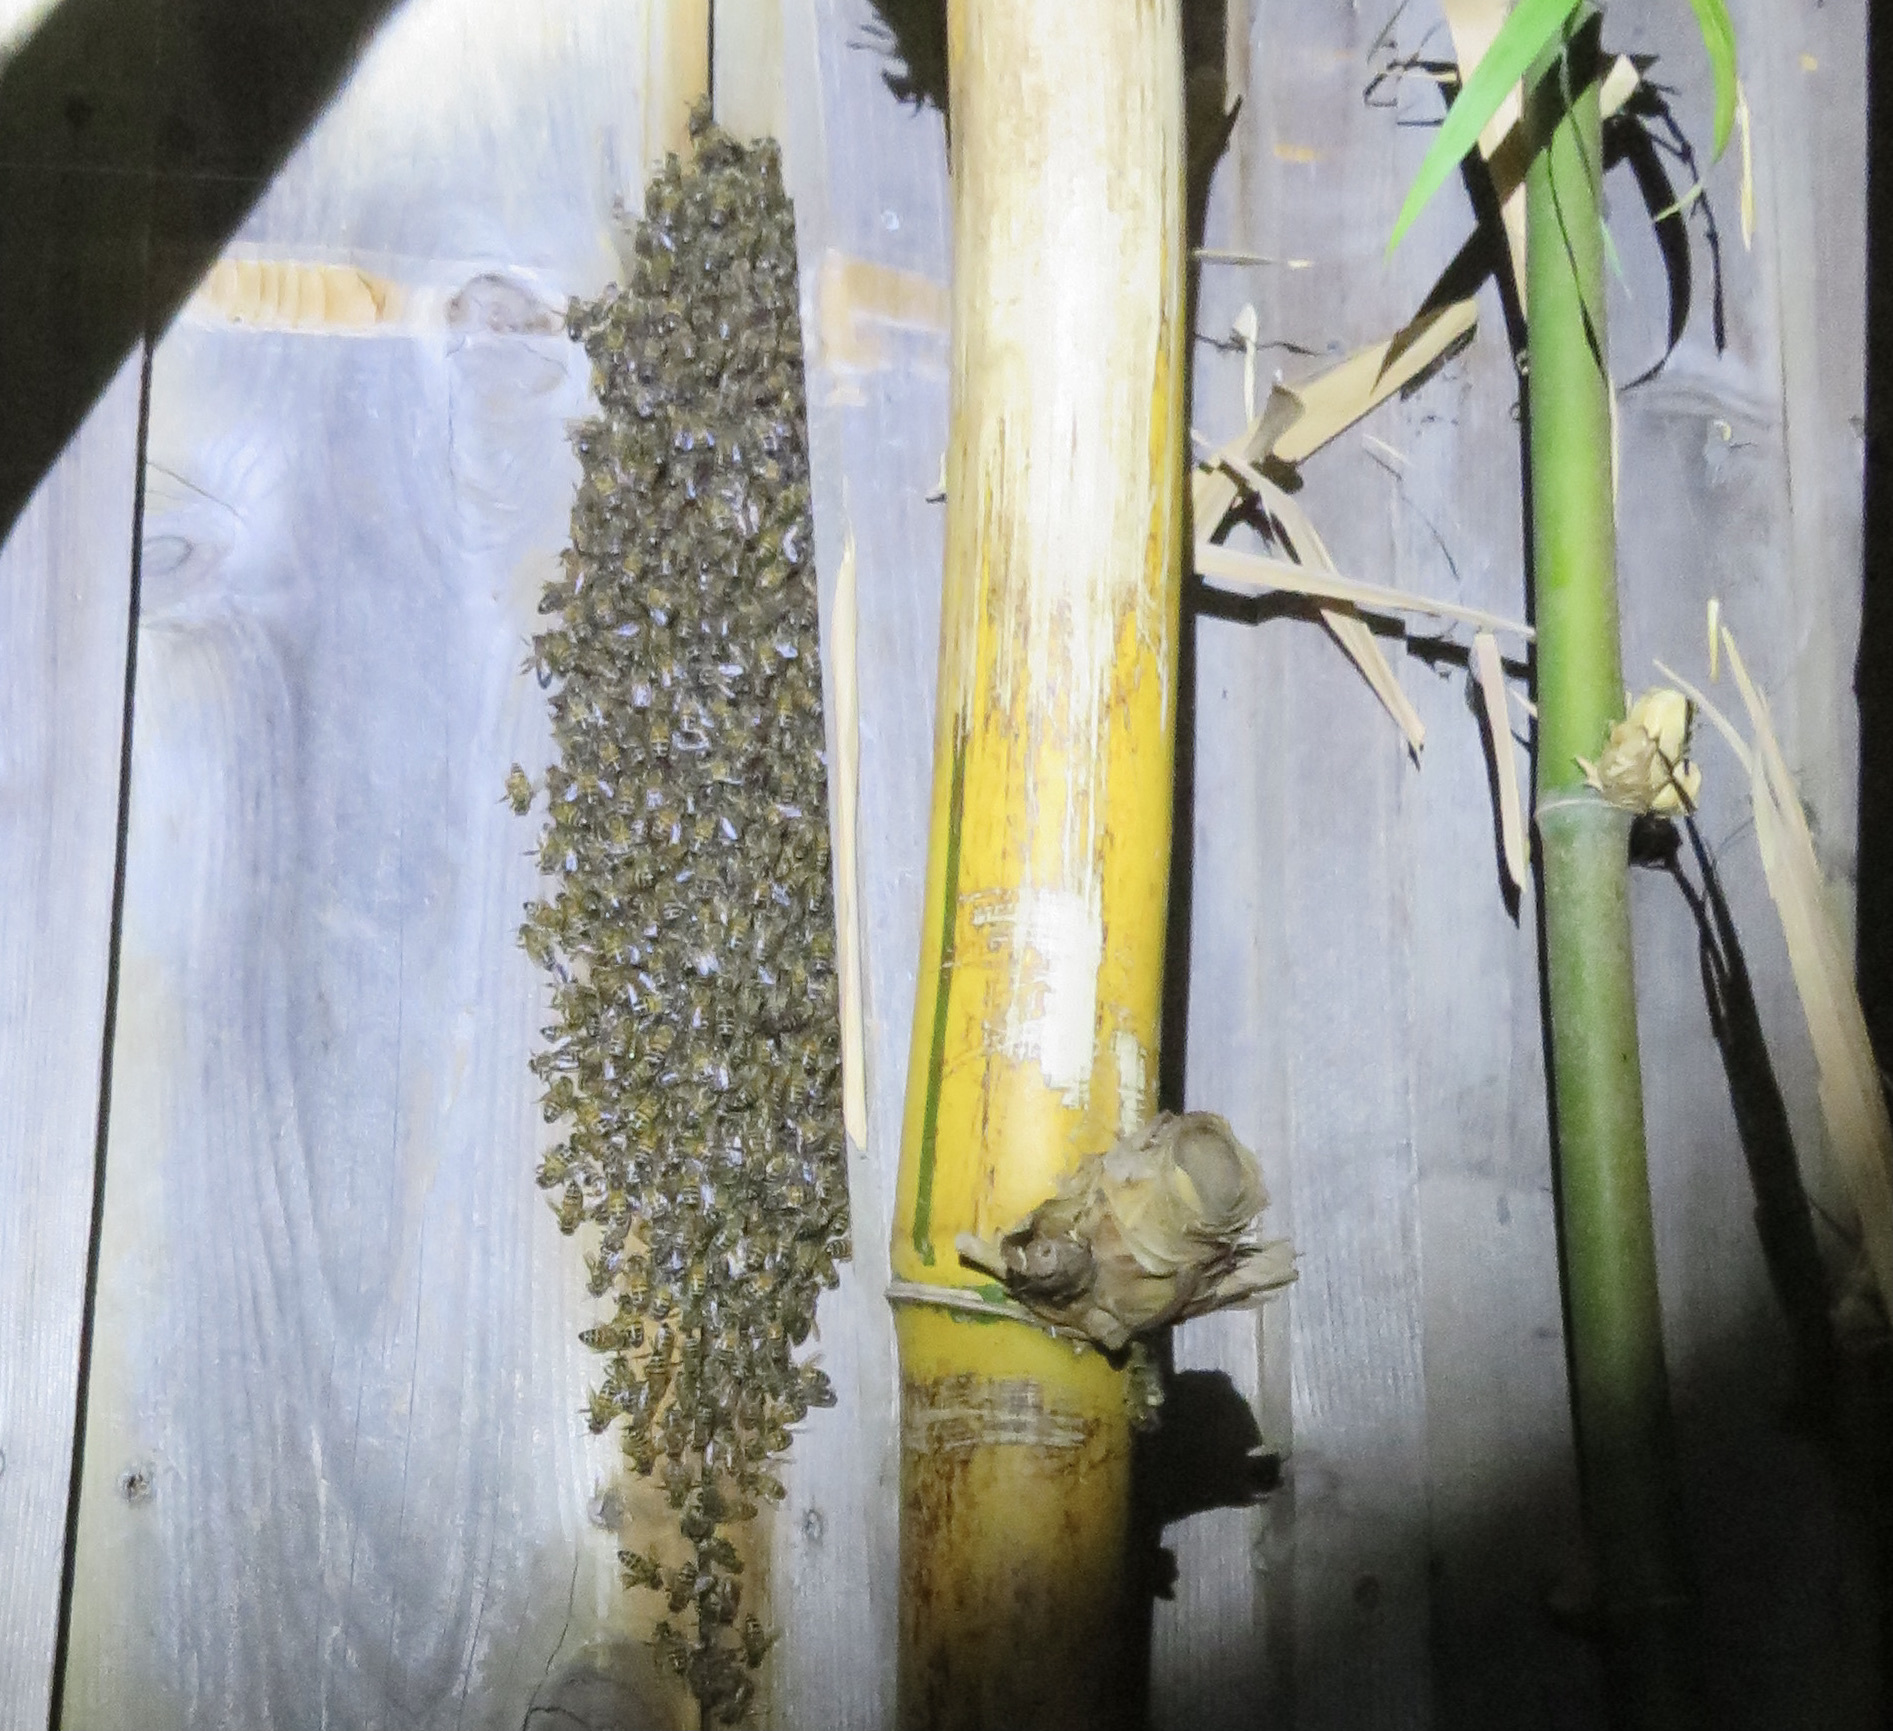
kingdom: Animalia
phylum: Arthropoda
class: Insecta
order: Hymenoptera
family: Apidae
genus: Apis
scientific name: Apis mellifera
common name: Honey bee
